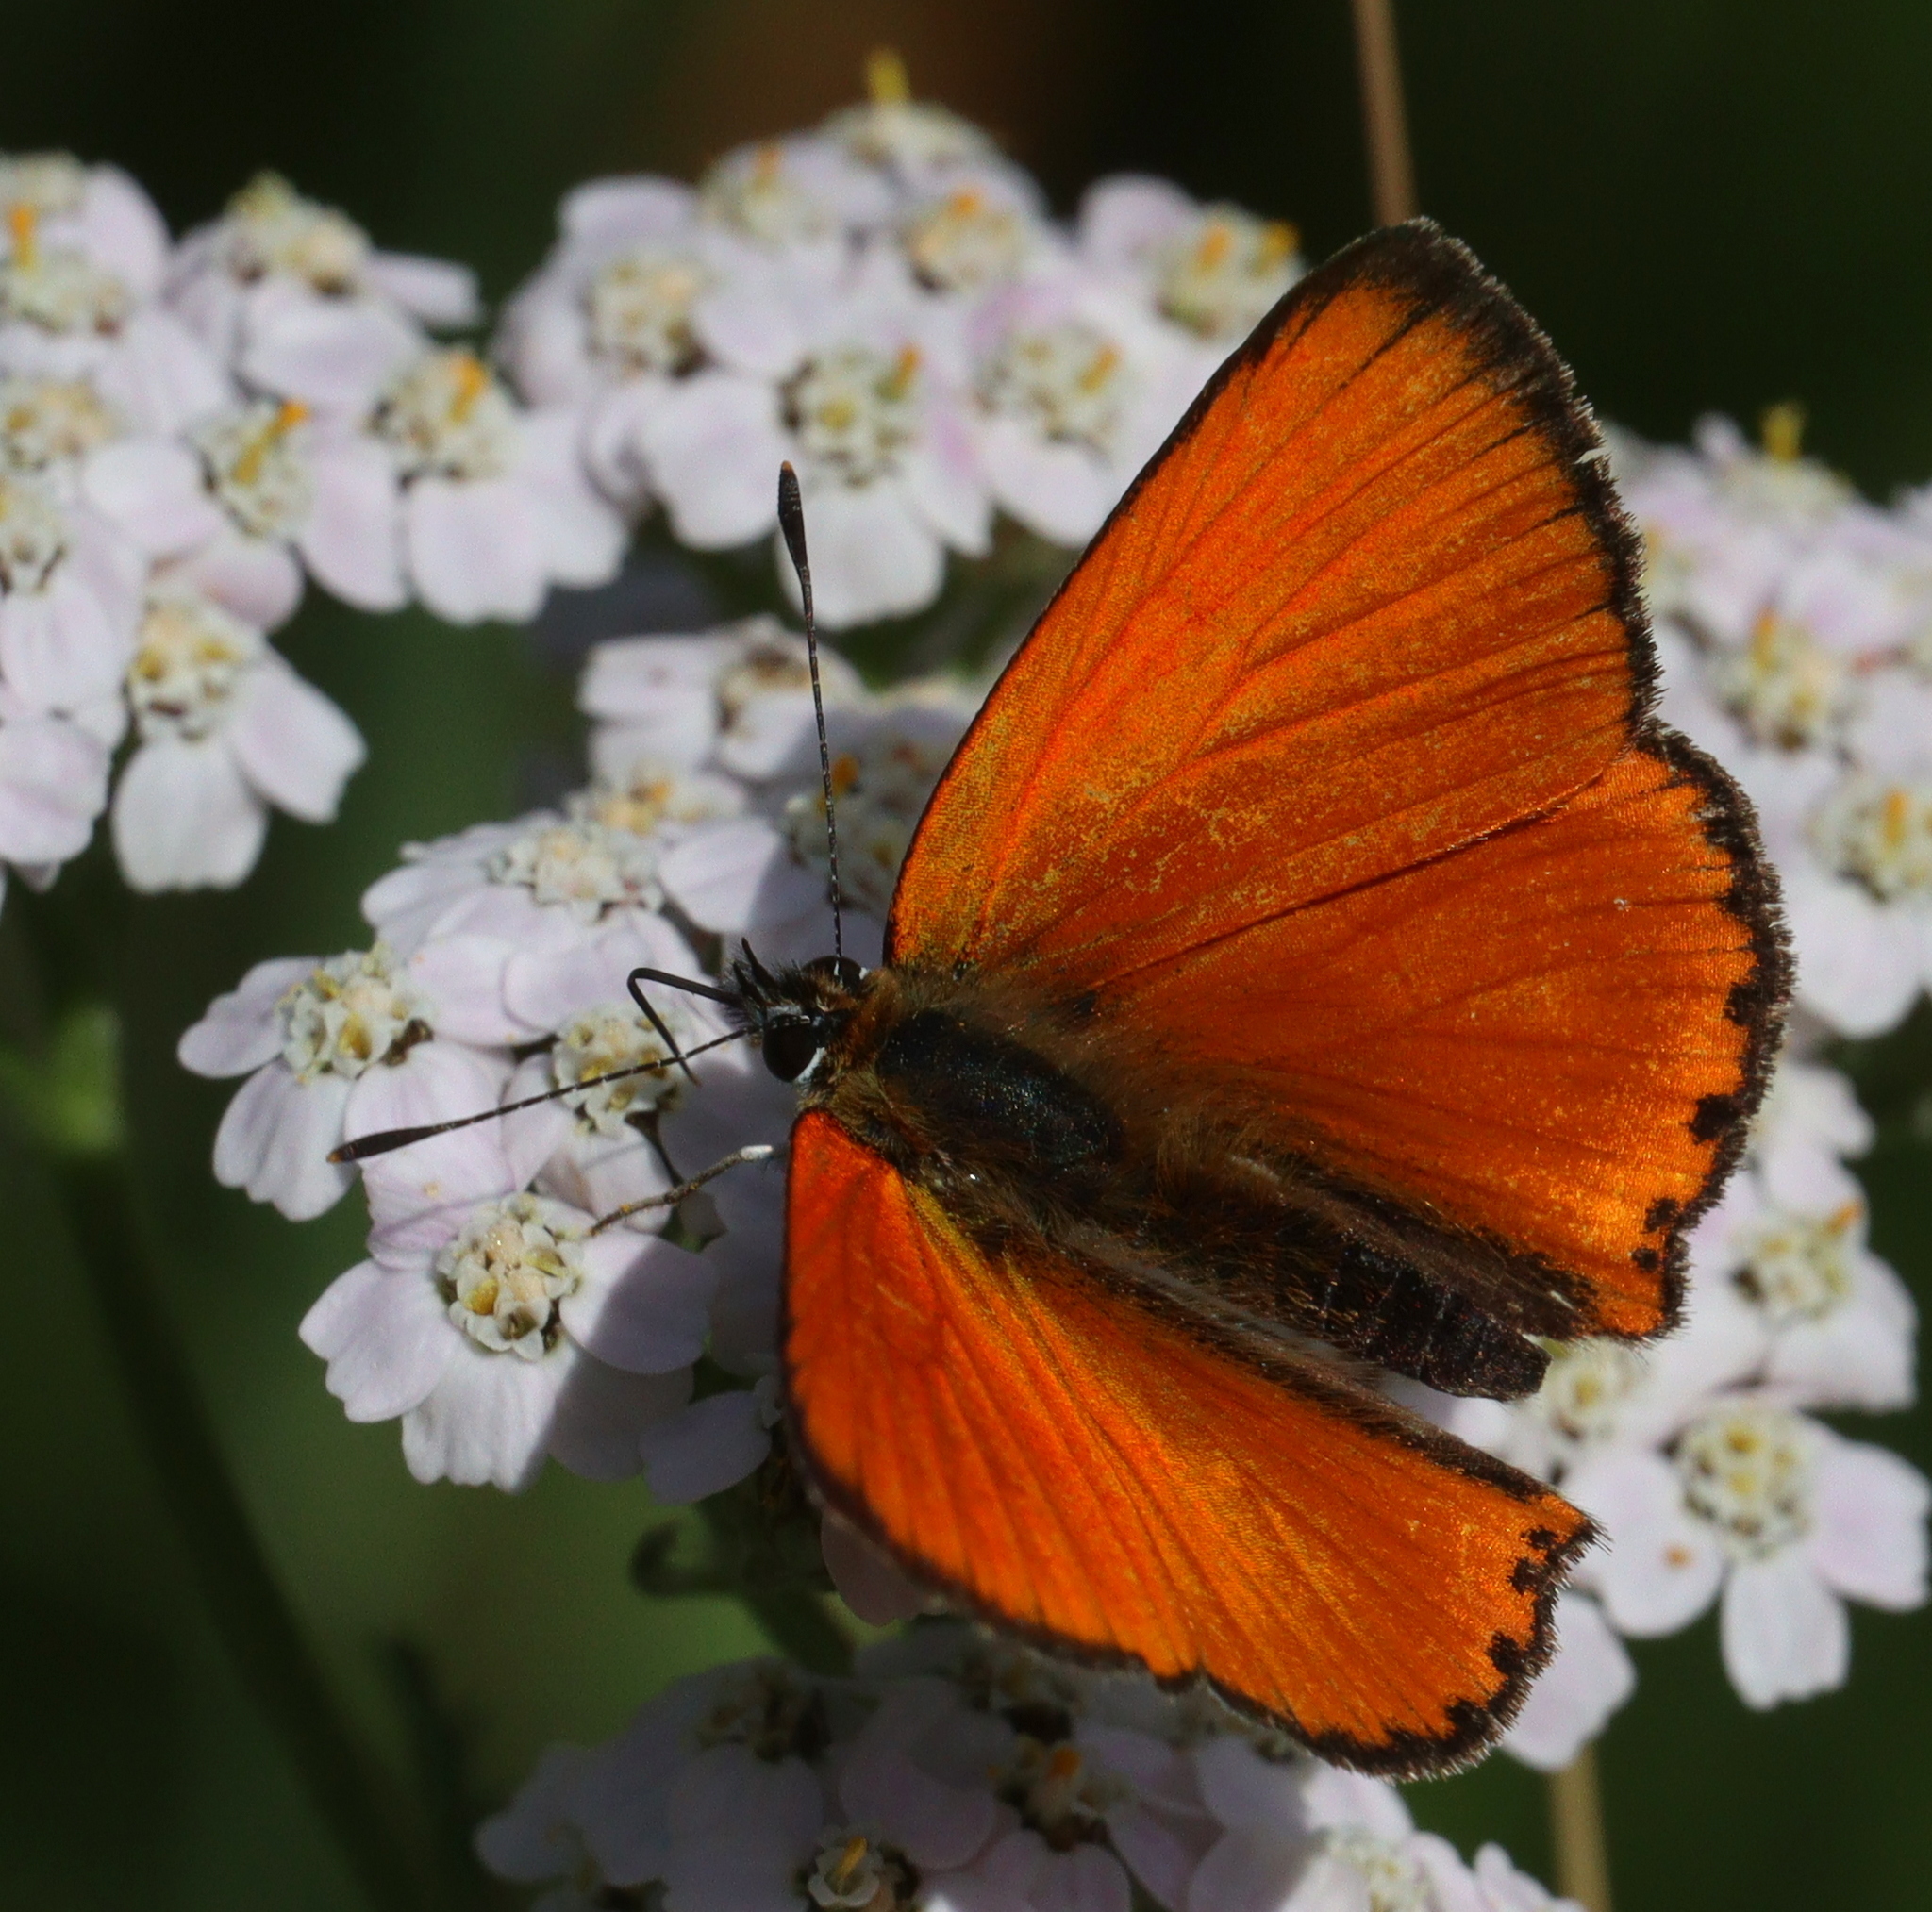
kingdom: Animalia
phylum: Arthropoda
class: Insecta
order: Lepidoptera
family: Lycaenidae
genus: Lycaena
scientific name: Lycaena virgaureae
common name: Scarce copper
